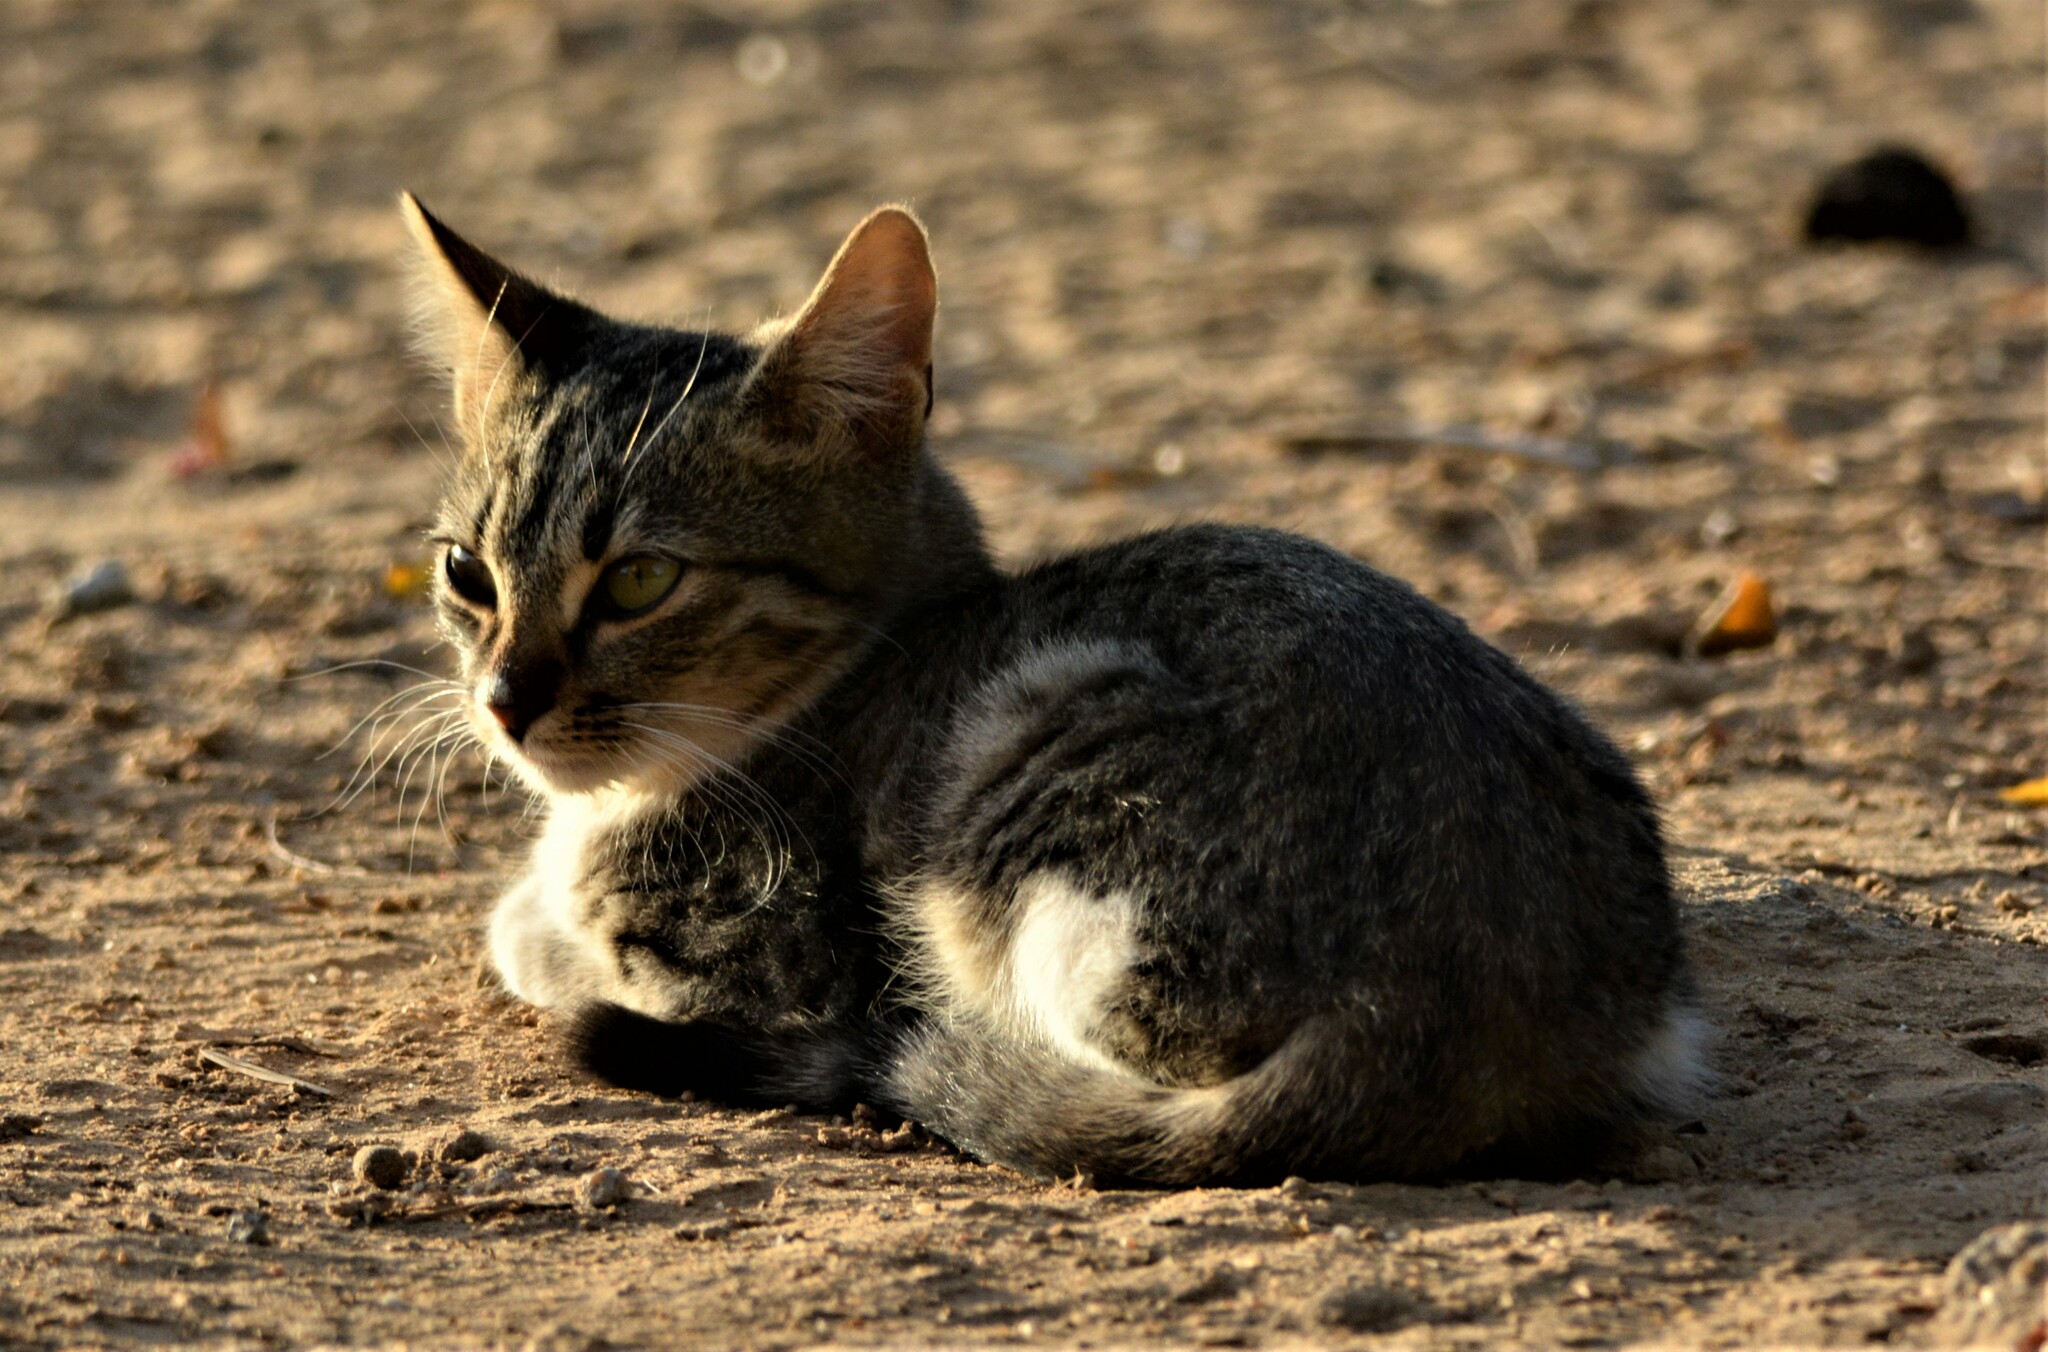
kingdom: Animalia
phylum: Chordata
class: Mammalia
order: Carnivora
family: Felidae
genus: Felis
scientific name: Felis catus
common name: Domestic cat
